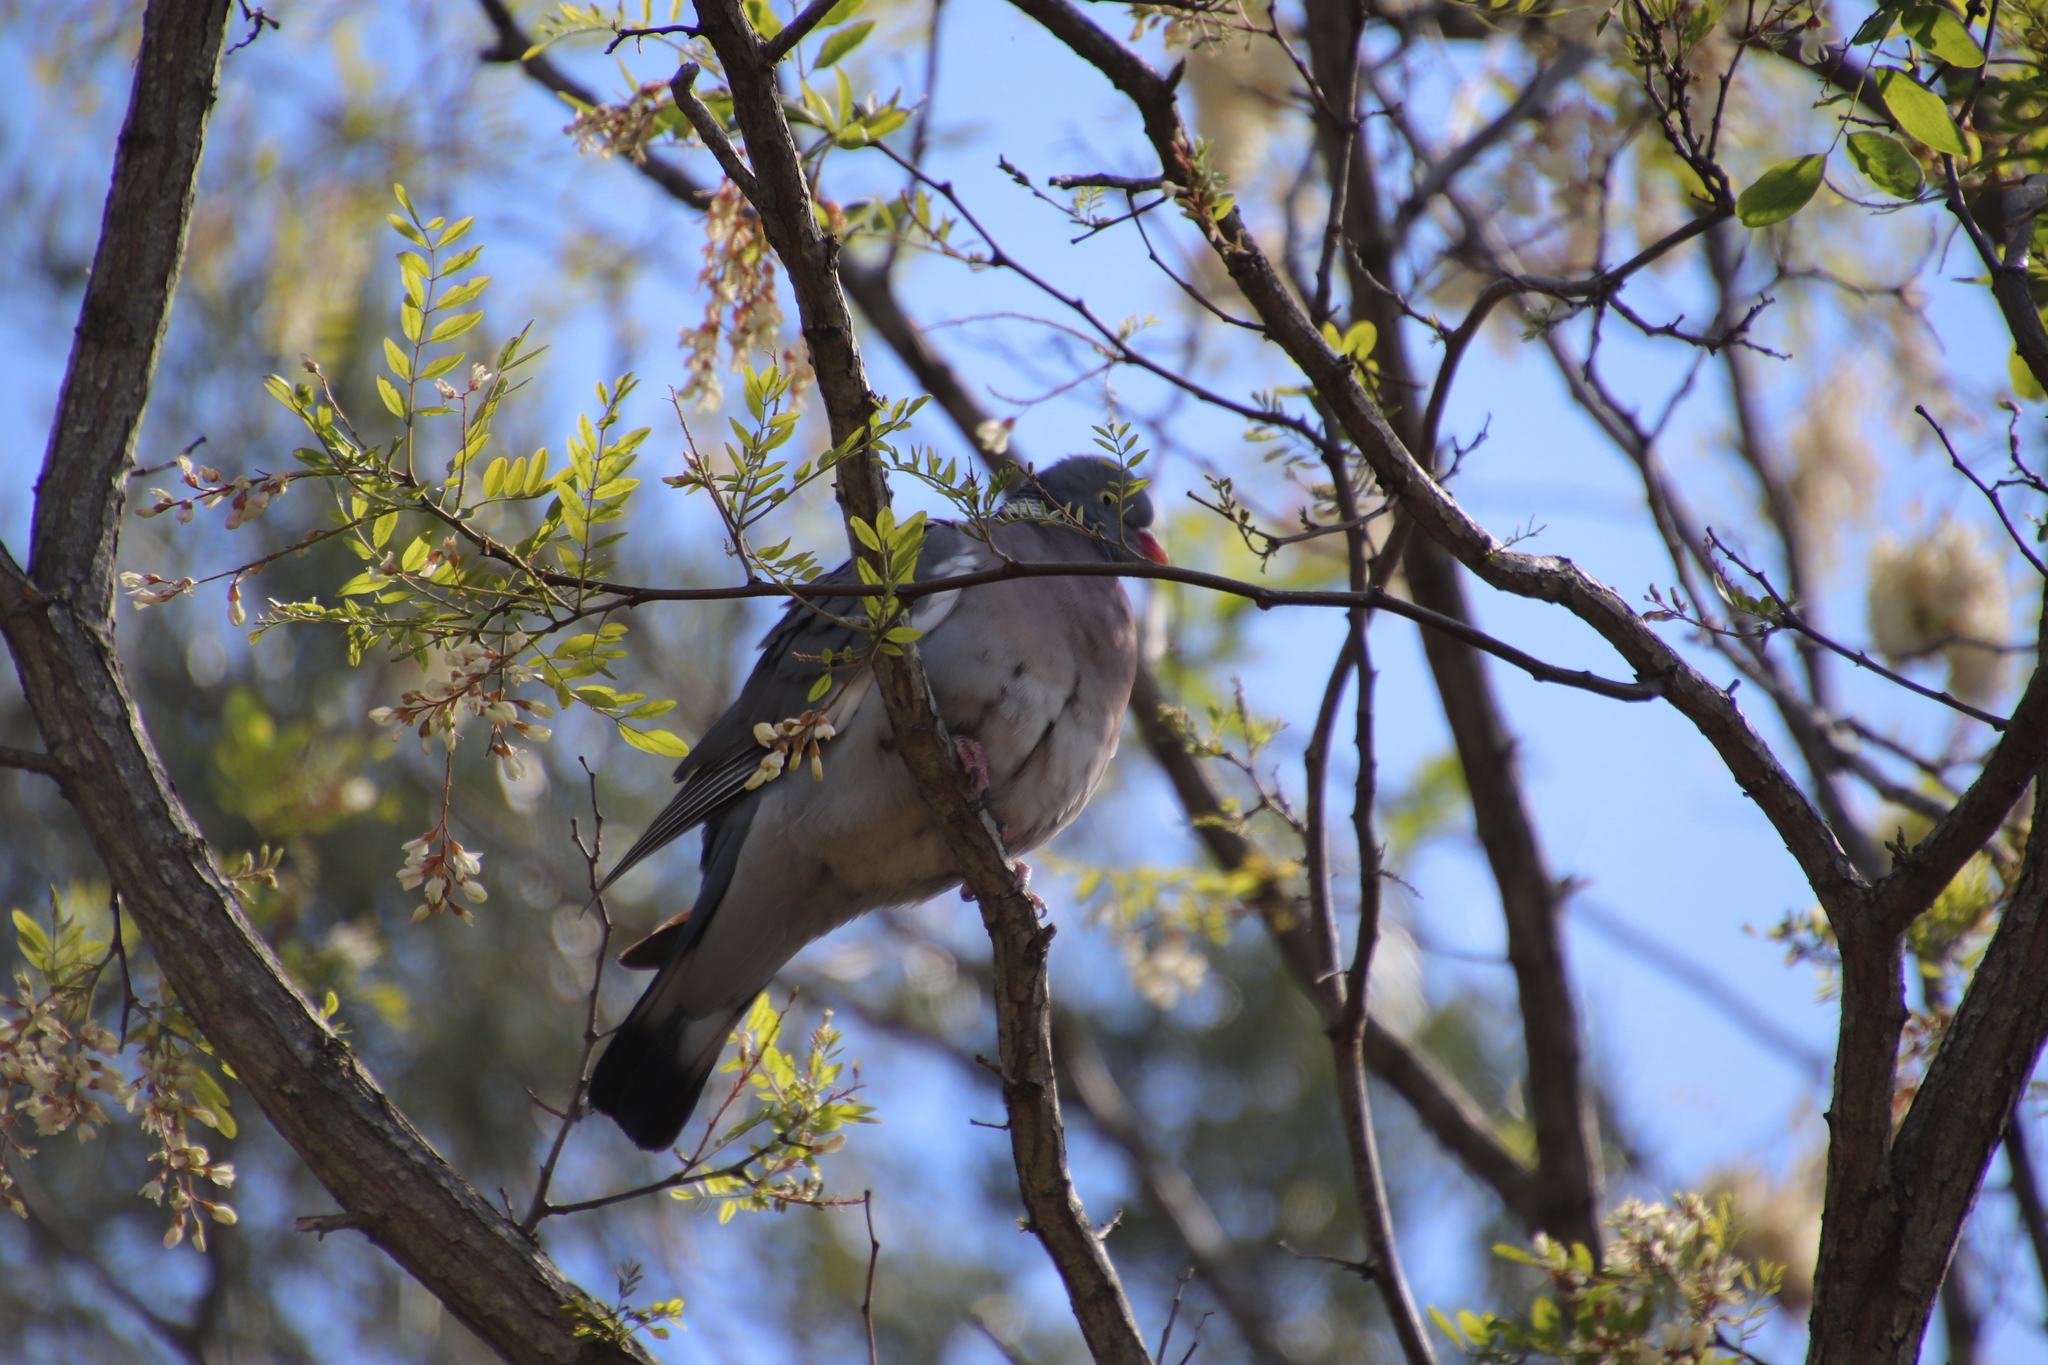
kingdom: Animalia
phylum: Chordata
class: Aves
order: Columbiformes
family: Columbidae
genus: Columba
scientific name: Columba palumbus
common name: Common wood pigeon
